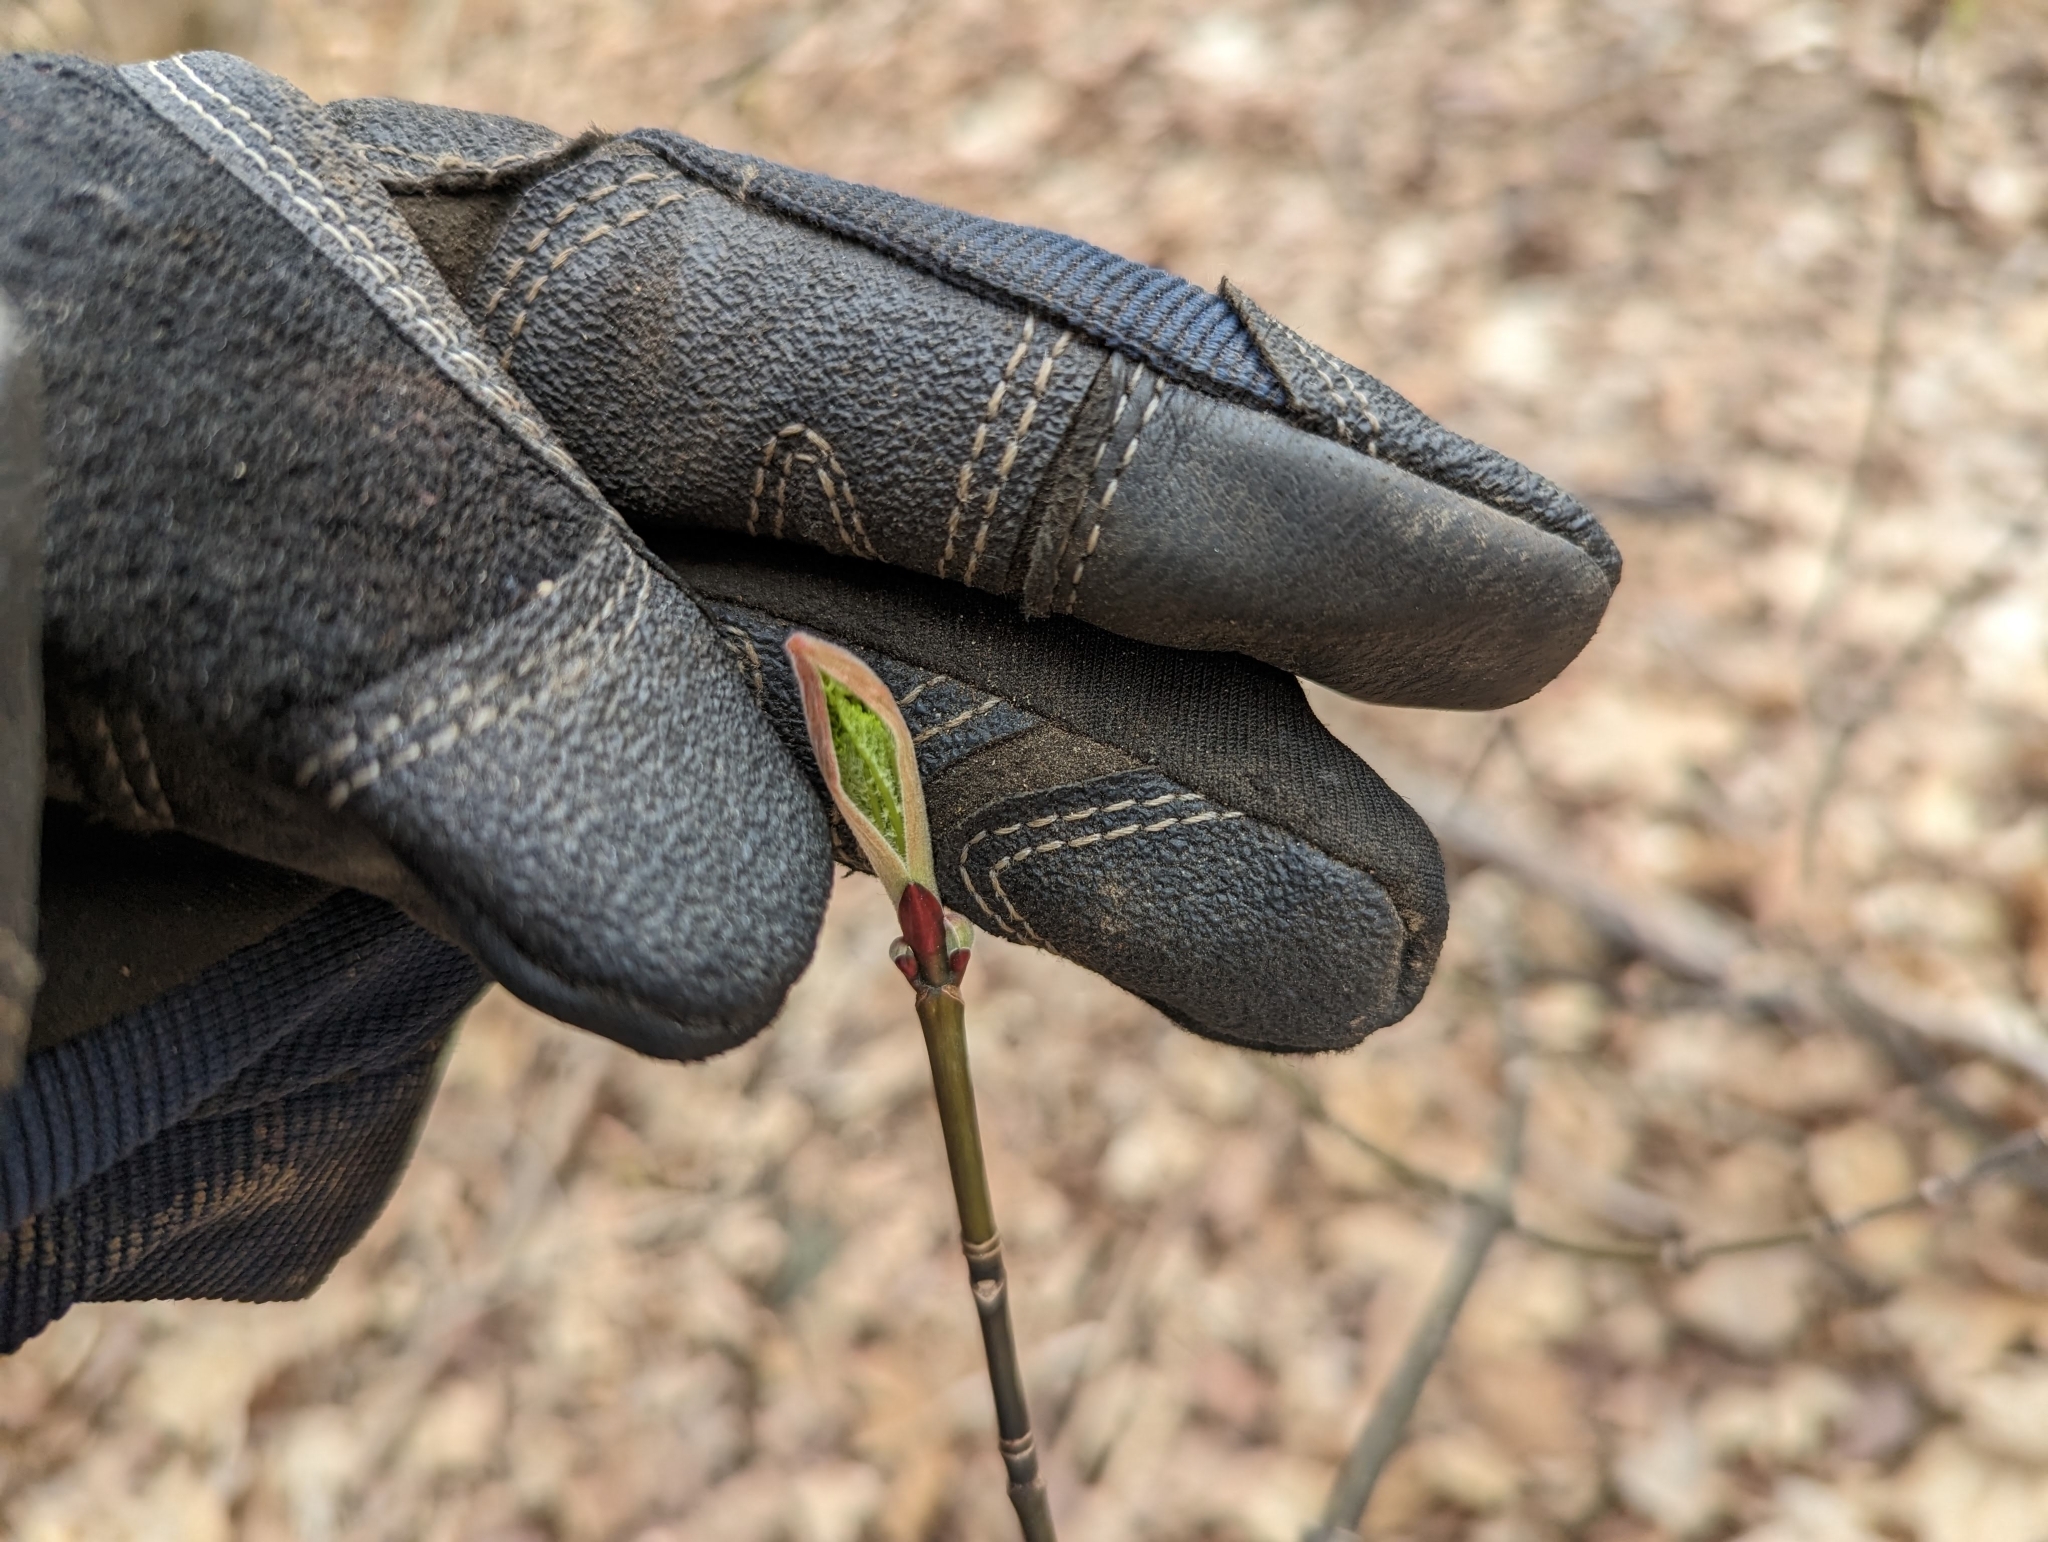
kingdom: Plantae
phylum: Tracheophyta
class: Magnoliopsida
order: Sapindales
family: Sapindaceae
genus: Acer
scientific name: Acer pensylvanicum
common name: Moosewood
